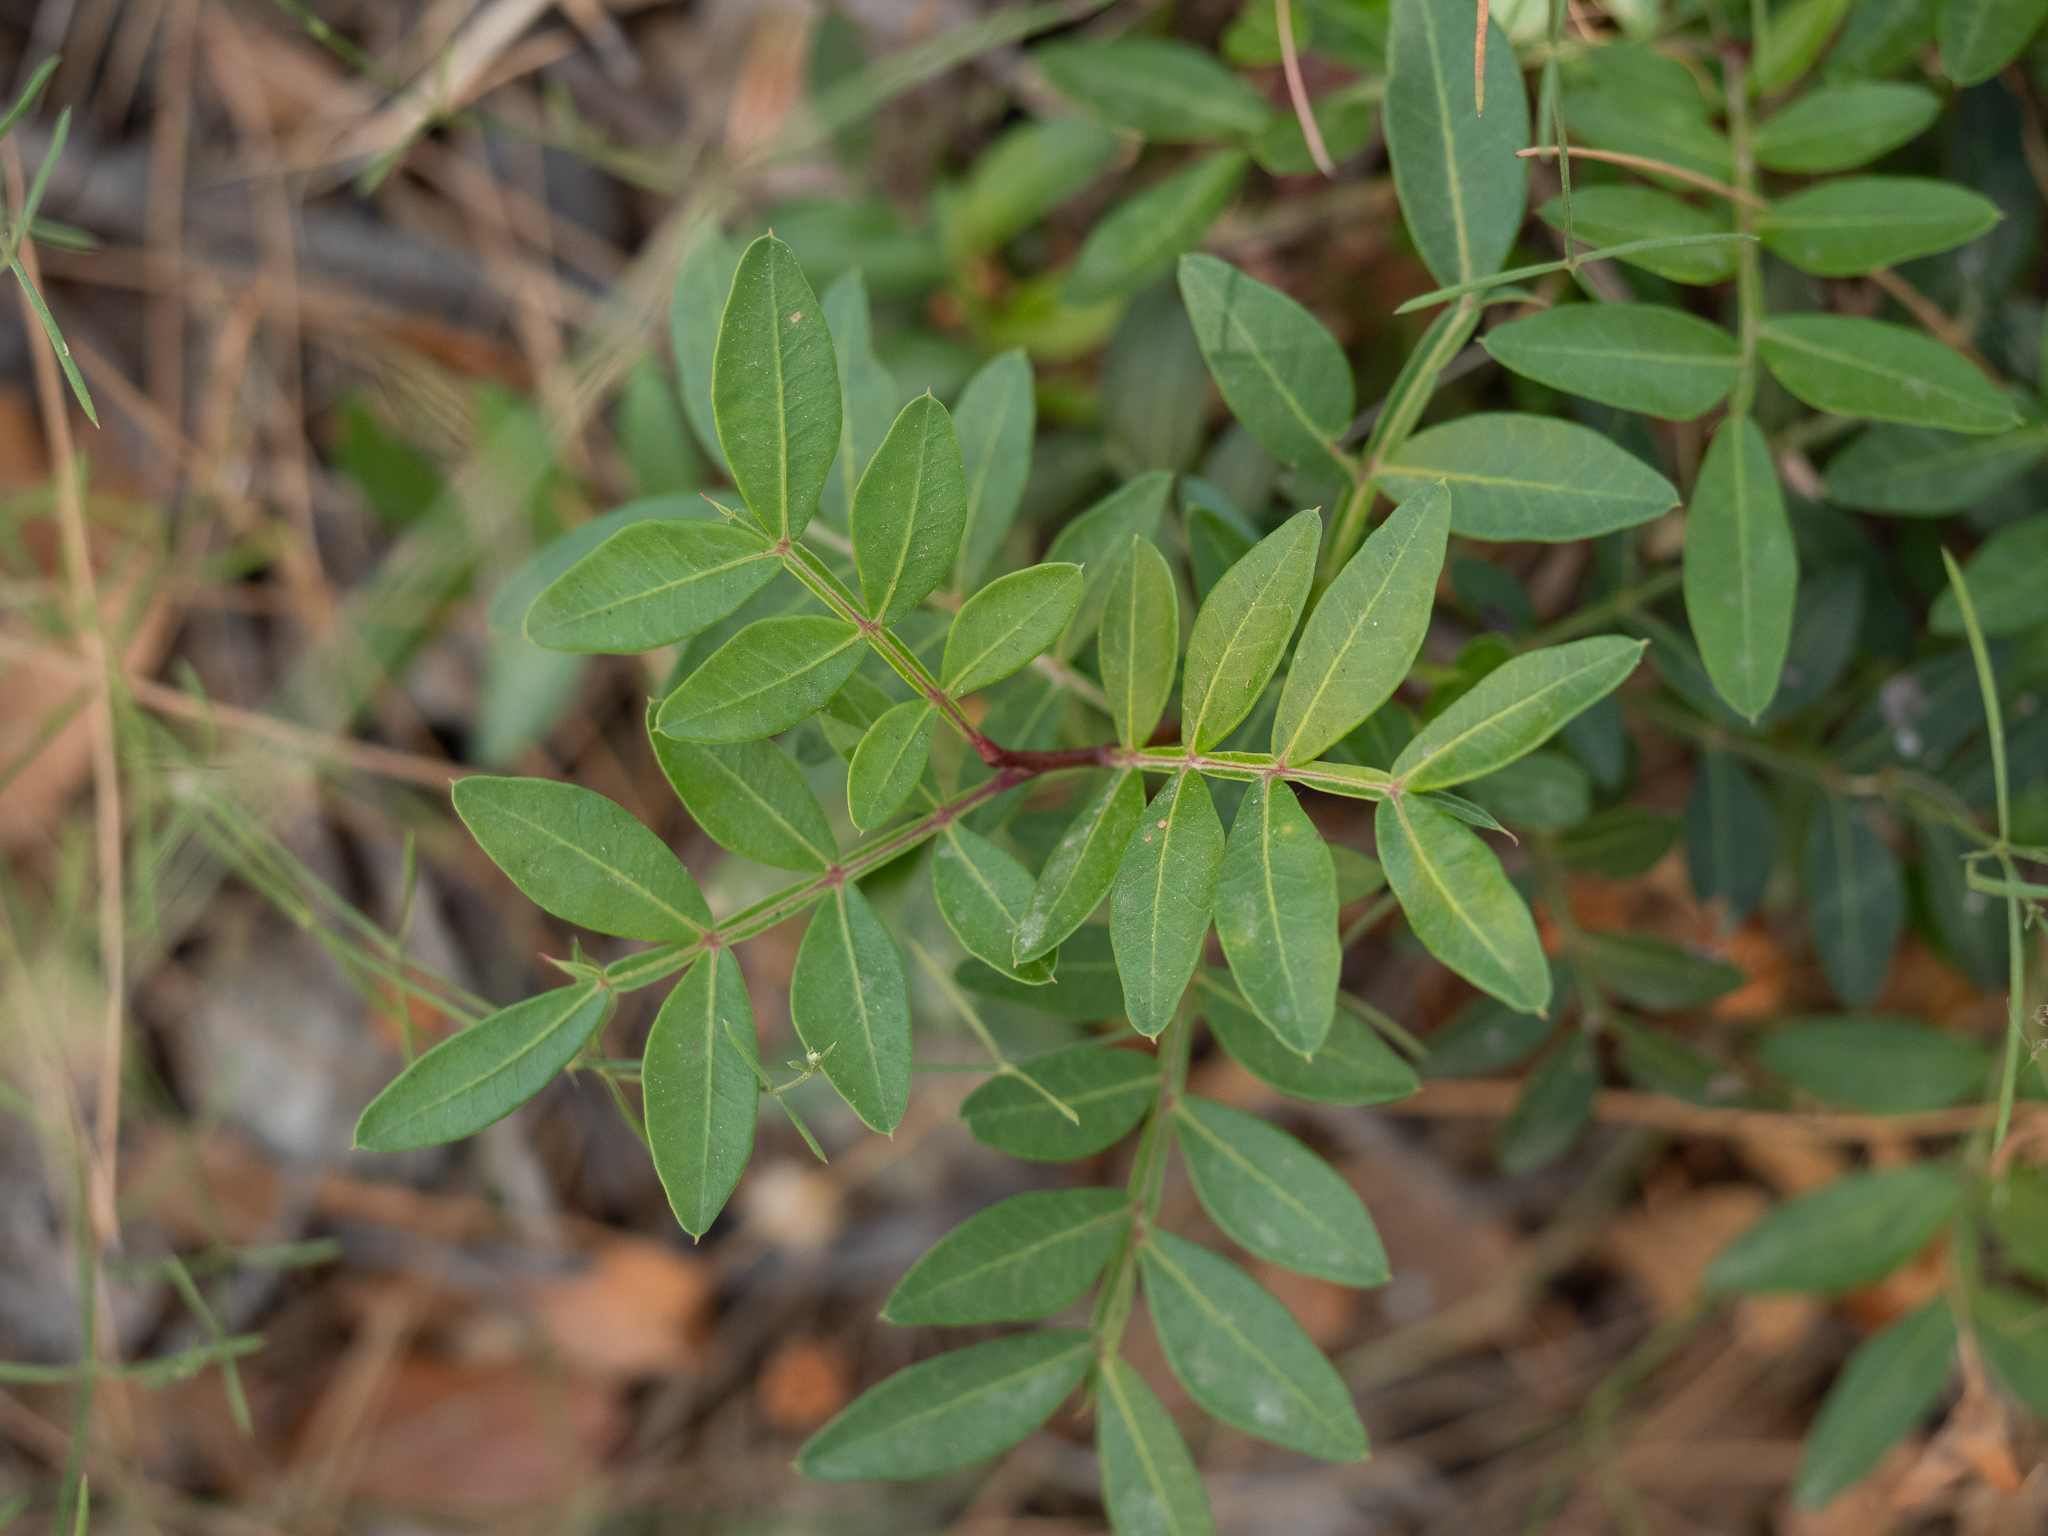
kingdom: Plantae
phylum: Tracheophyta
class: Magnoliopsida
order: Sapindales
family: Anacardiaceae
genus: Pistacia
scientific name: Pistacia lentiscus
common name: Lentisk
